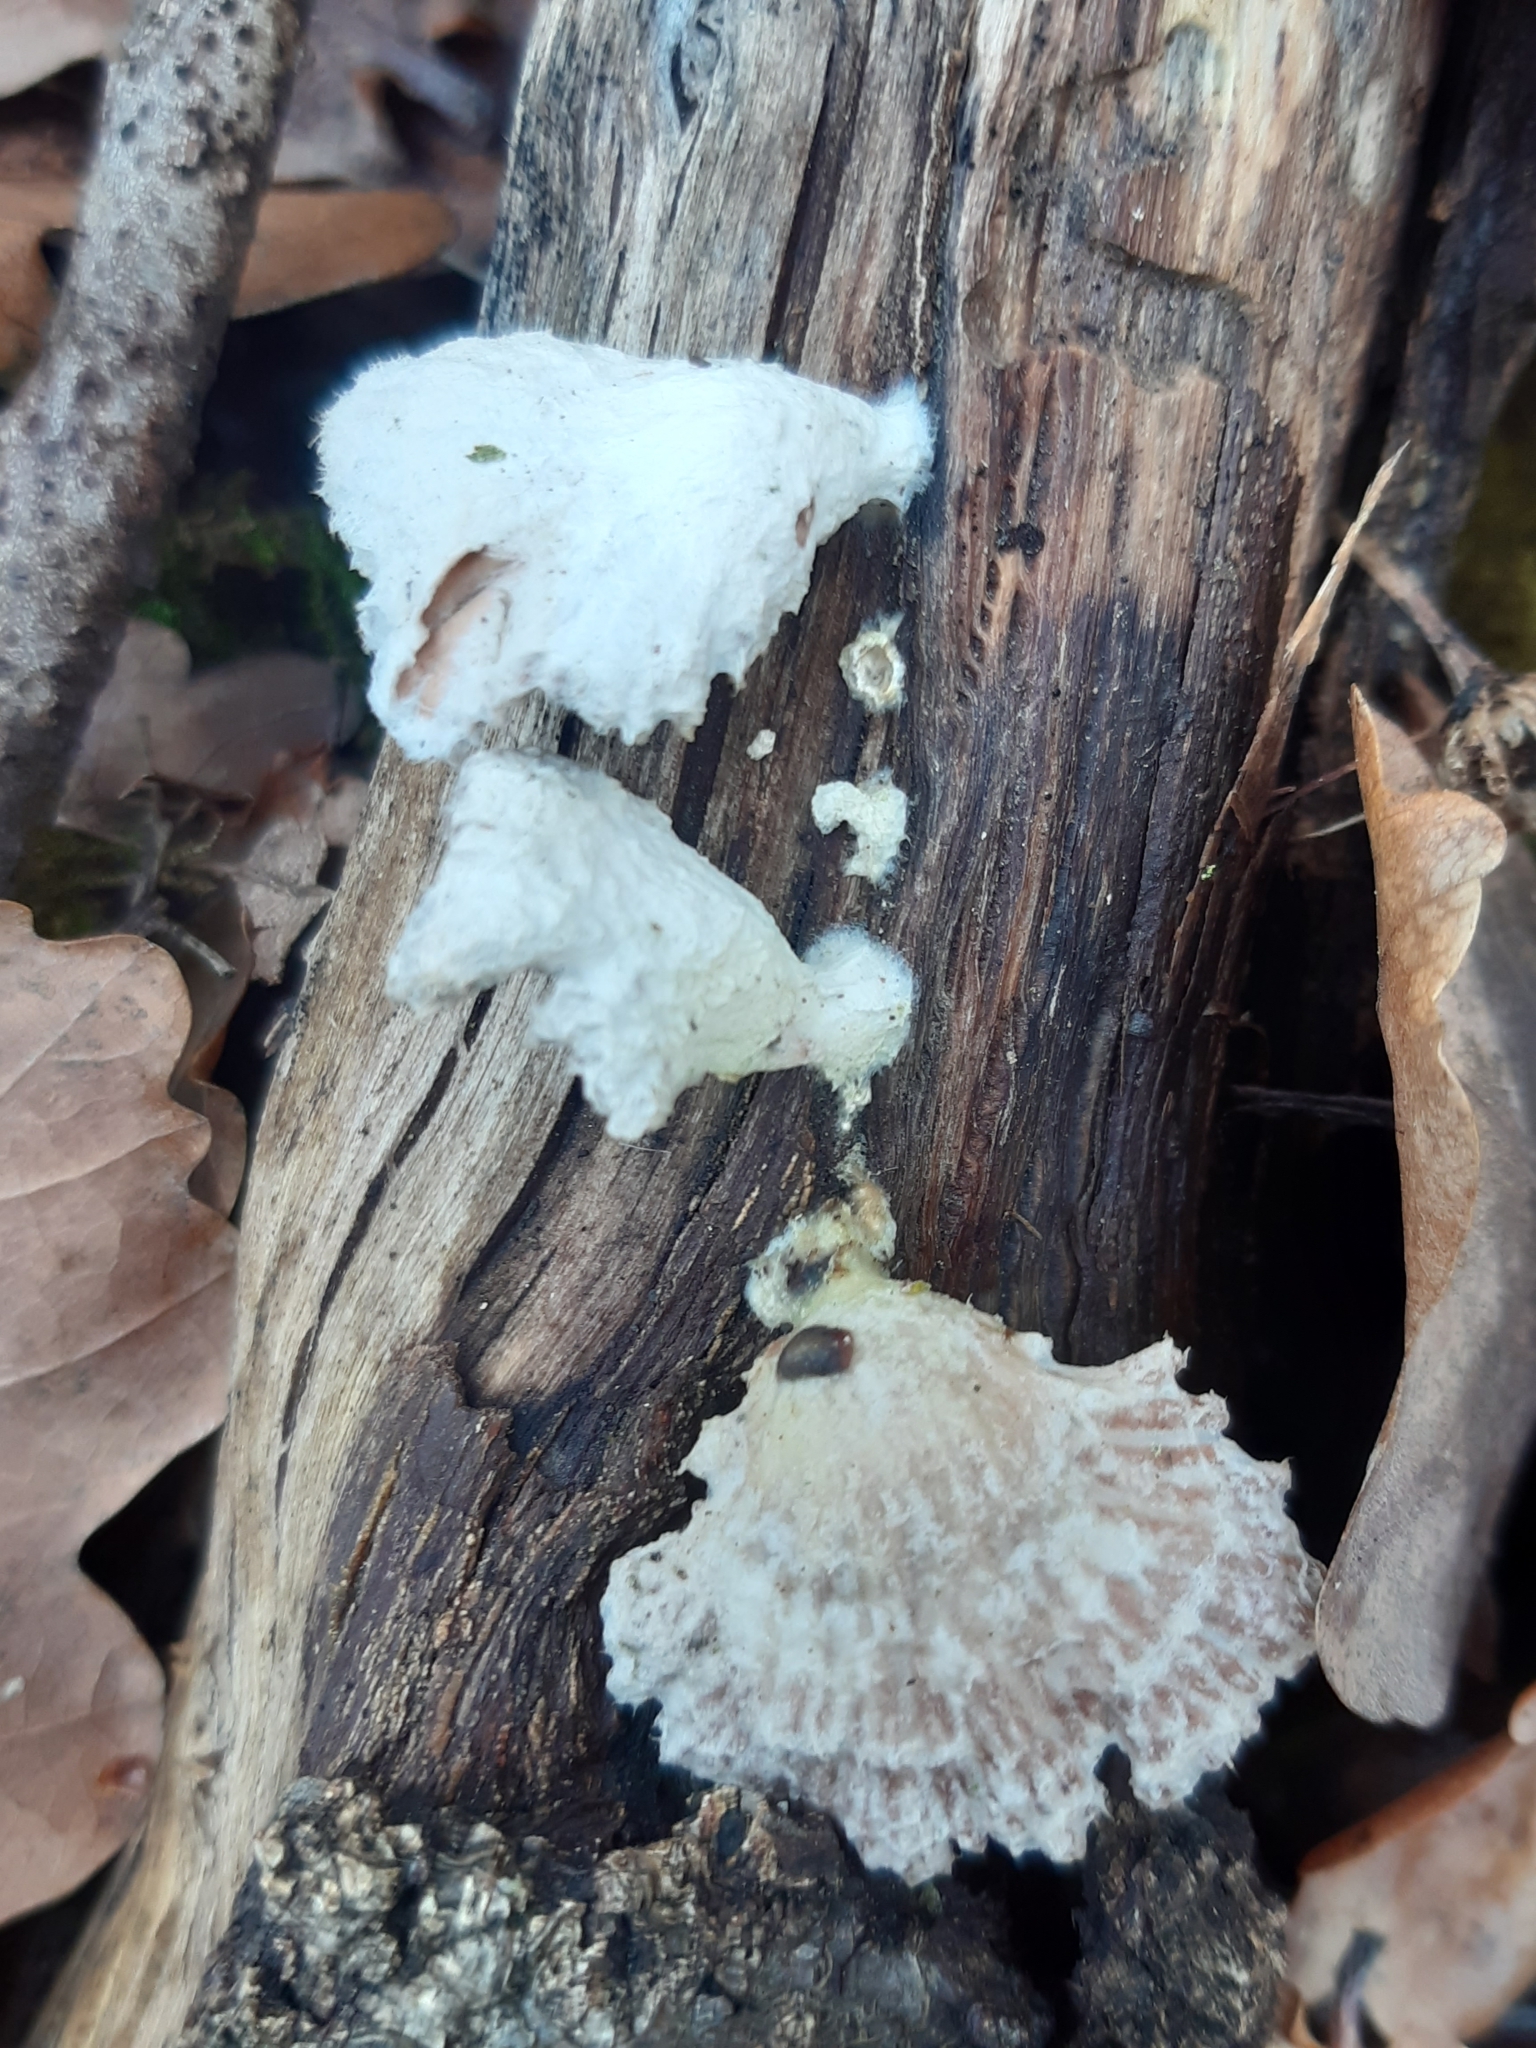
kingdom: Fungi
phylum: Basidiomycota
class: Agaricomycetes
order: Agaricales
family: Schizophyllaceae
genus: Schizophyllum
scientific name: Schizophyllum commune
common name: Common porecrust
